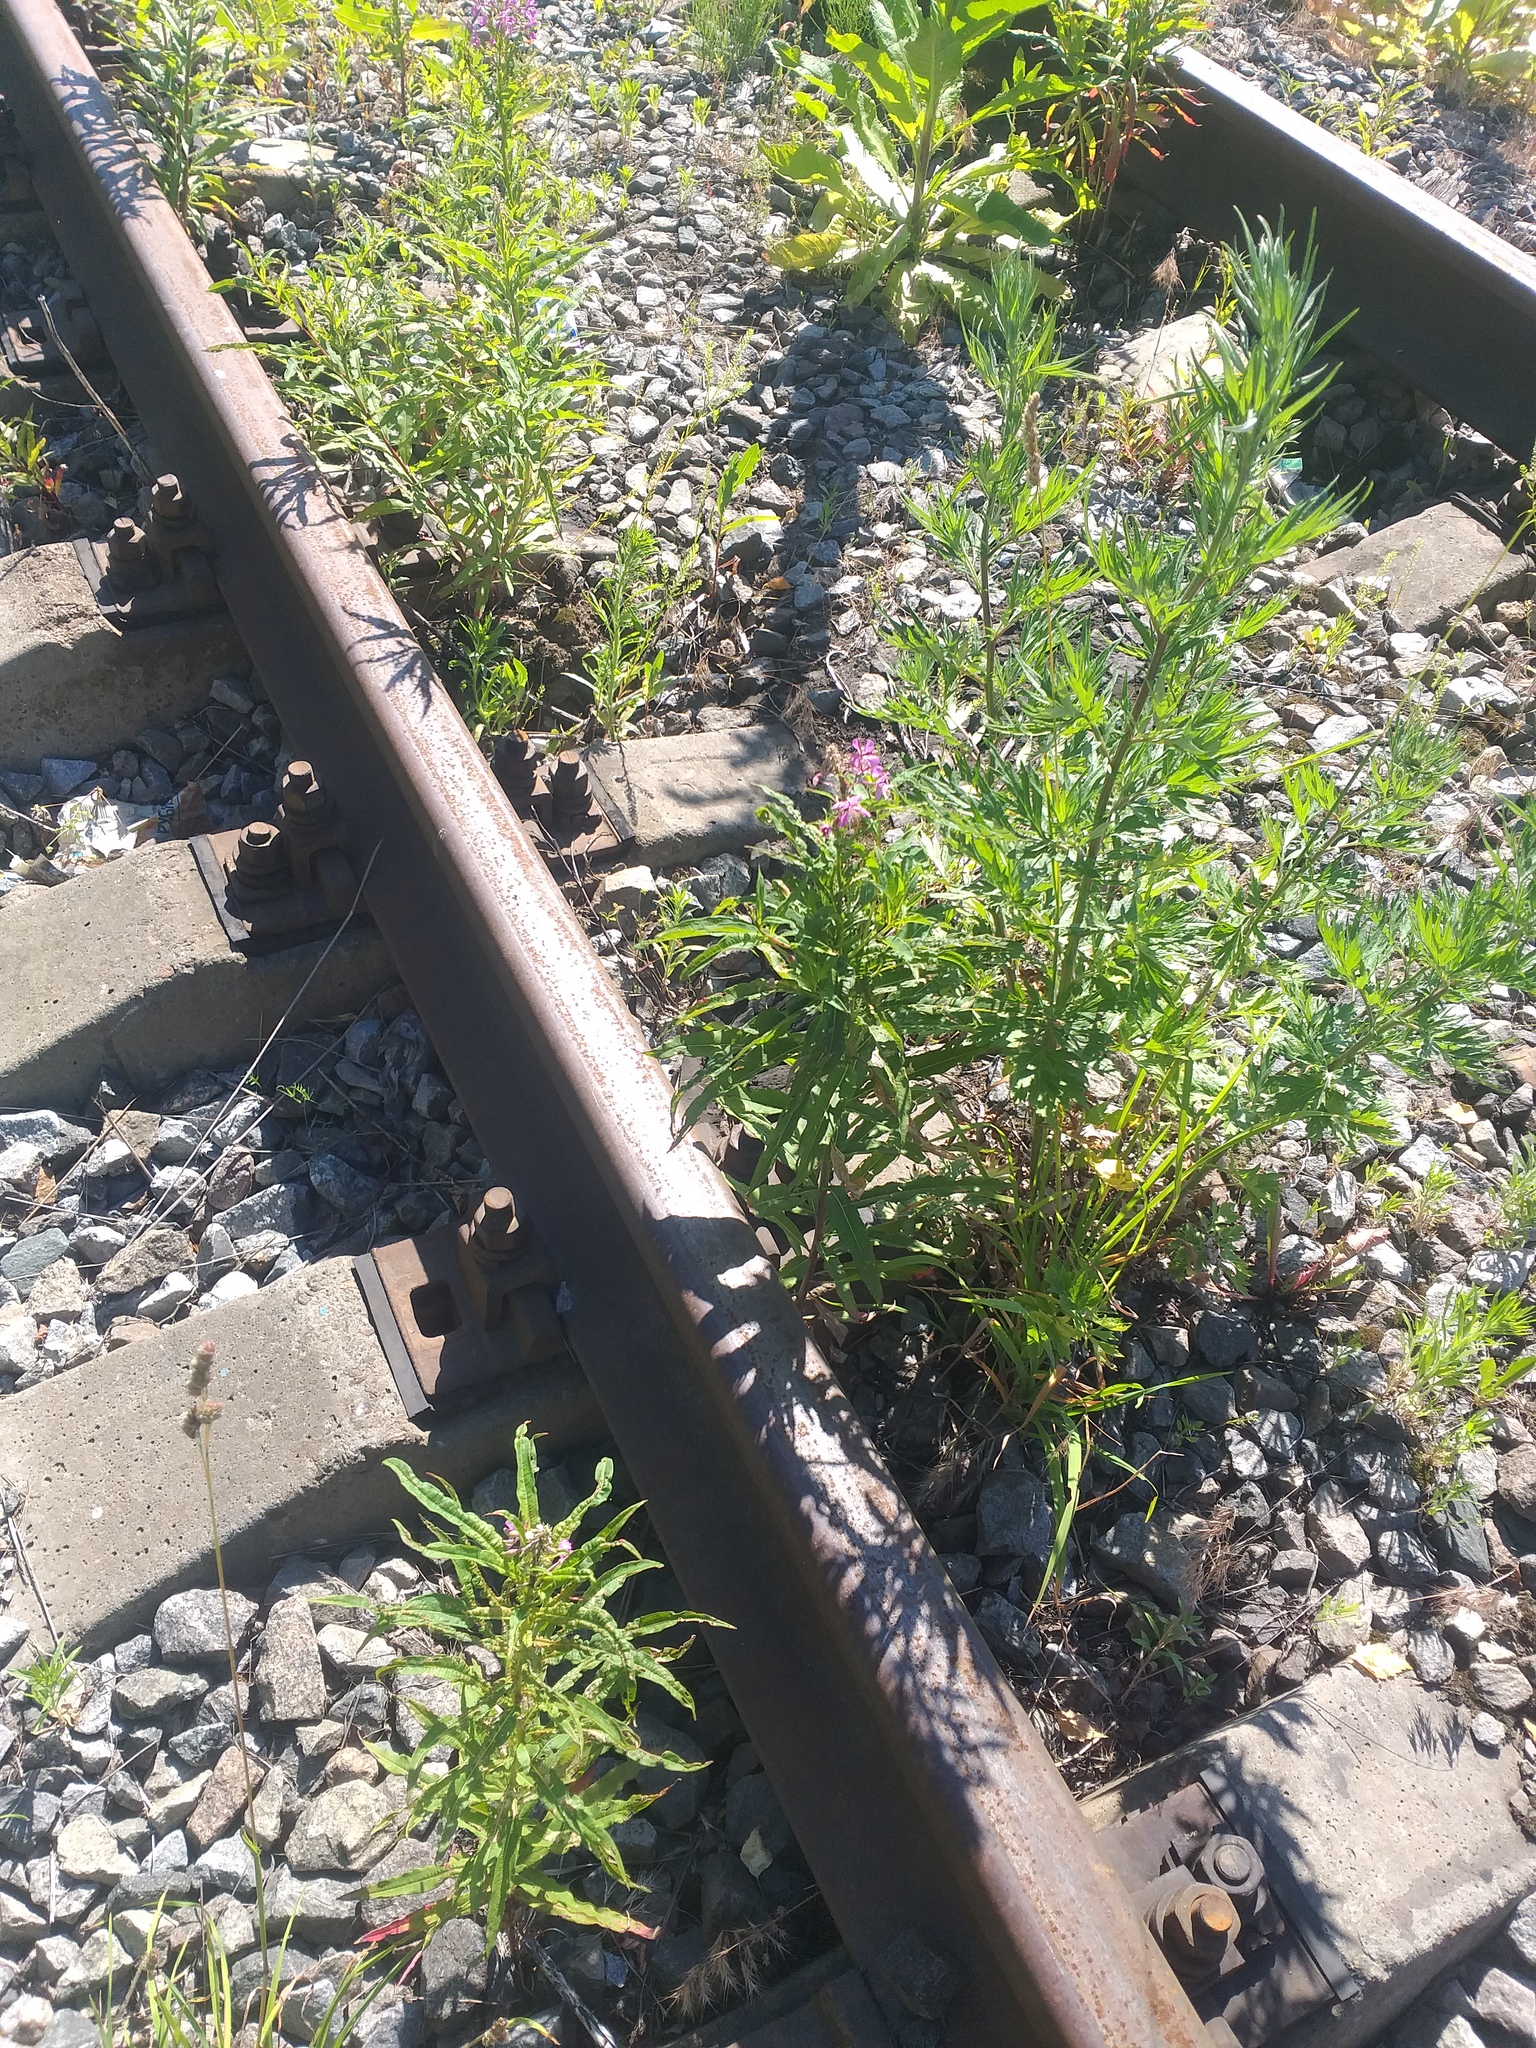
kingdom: Plantae
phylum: Tracheophyta
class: Magnoliopsida
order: Myrtales
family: Onagraceae
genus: Chamaenerion
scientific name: Chamaenerion angustifolium
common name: Fireweed
